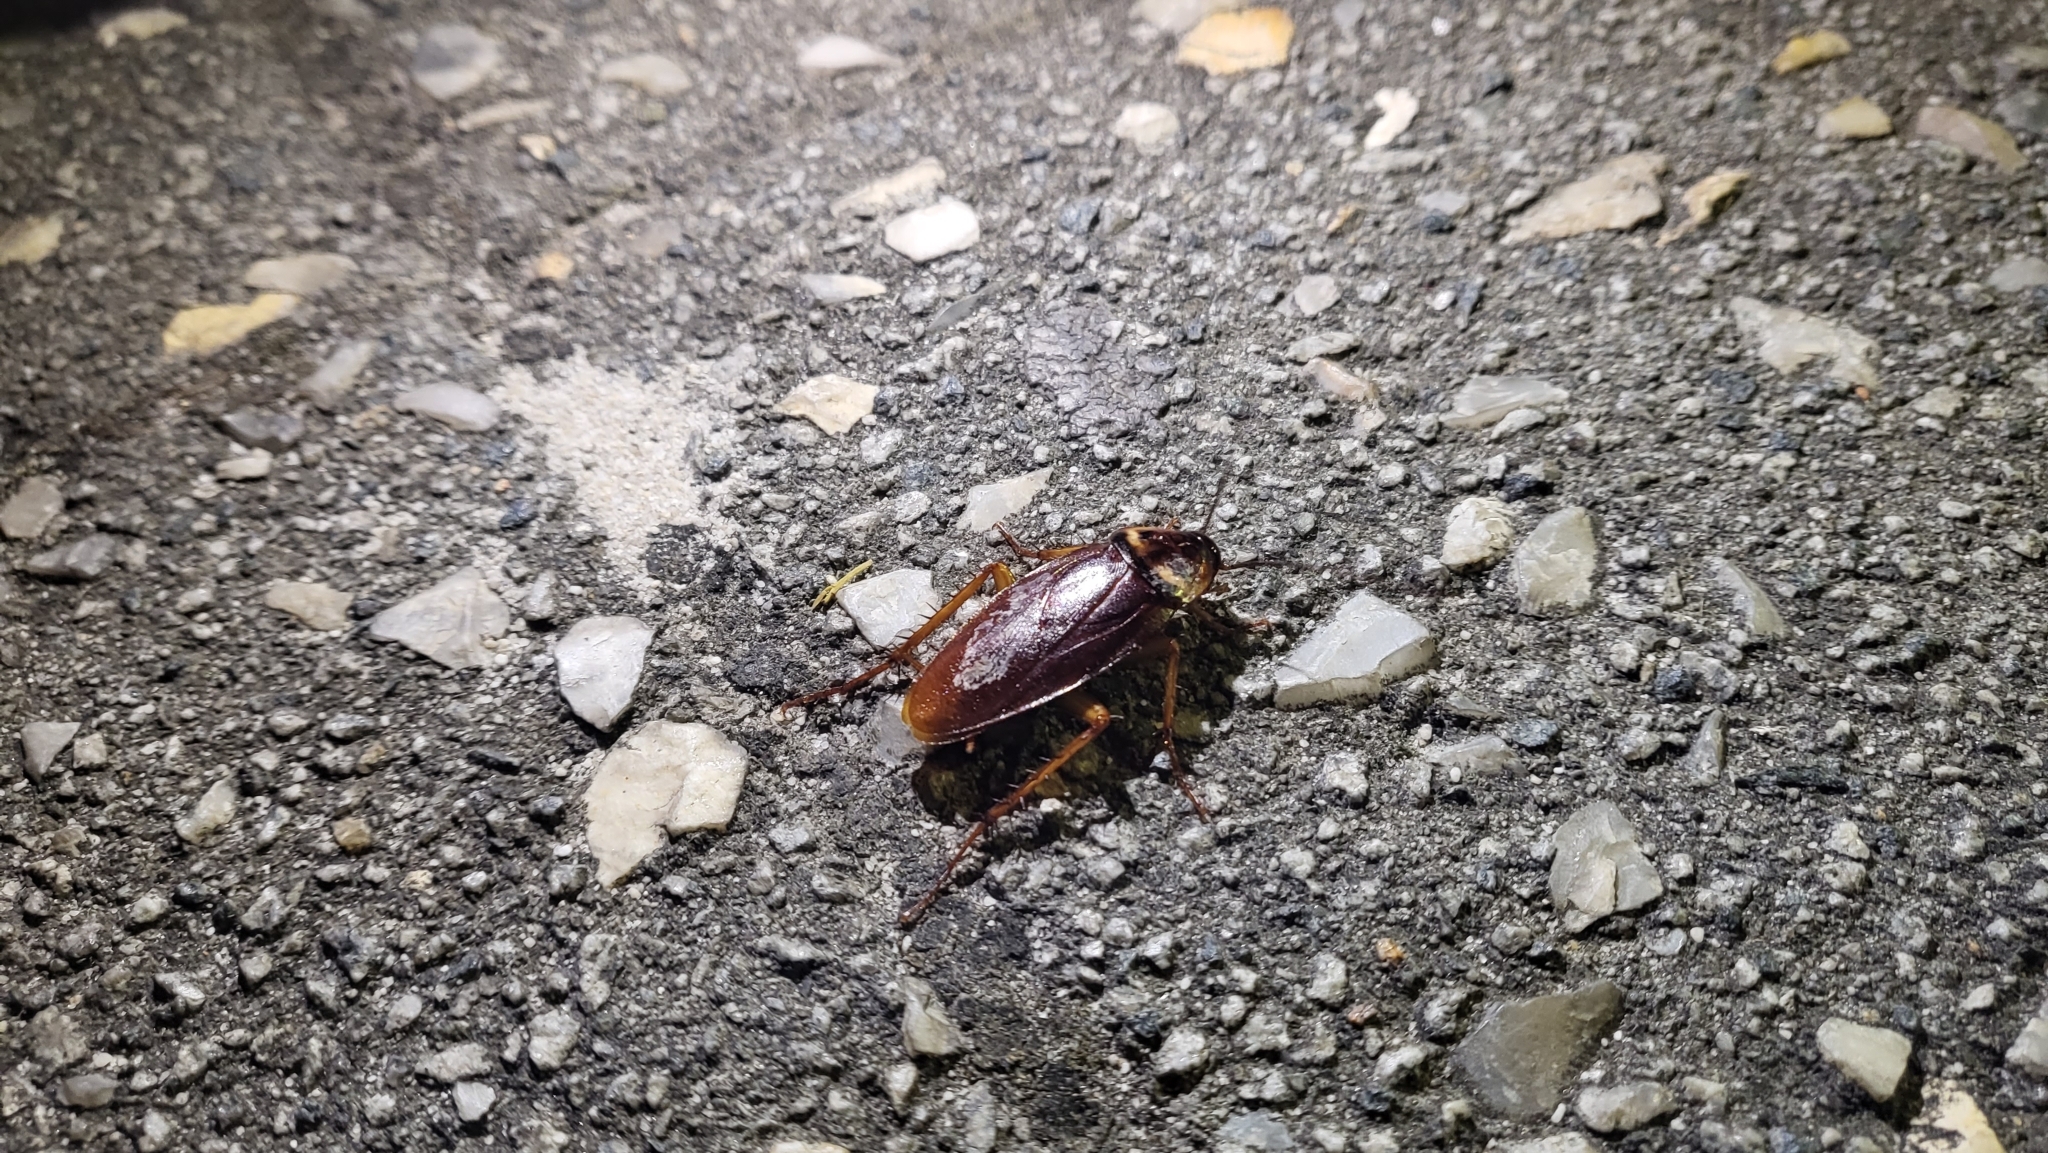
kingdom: Animalia
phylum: Arthropoda
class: Insecta
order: Blattodea
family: Blattidae
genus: Periplaneta
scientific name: Periplaneta americana
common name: American cockroach
